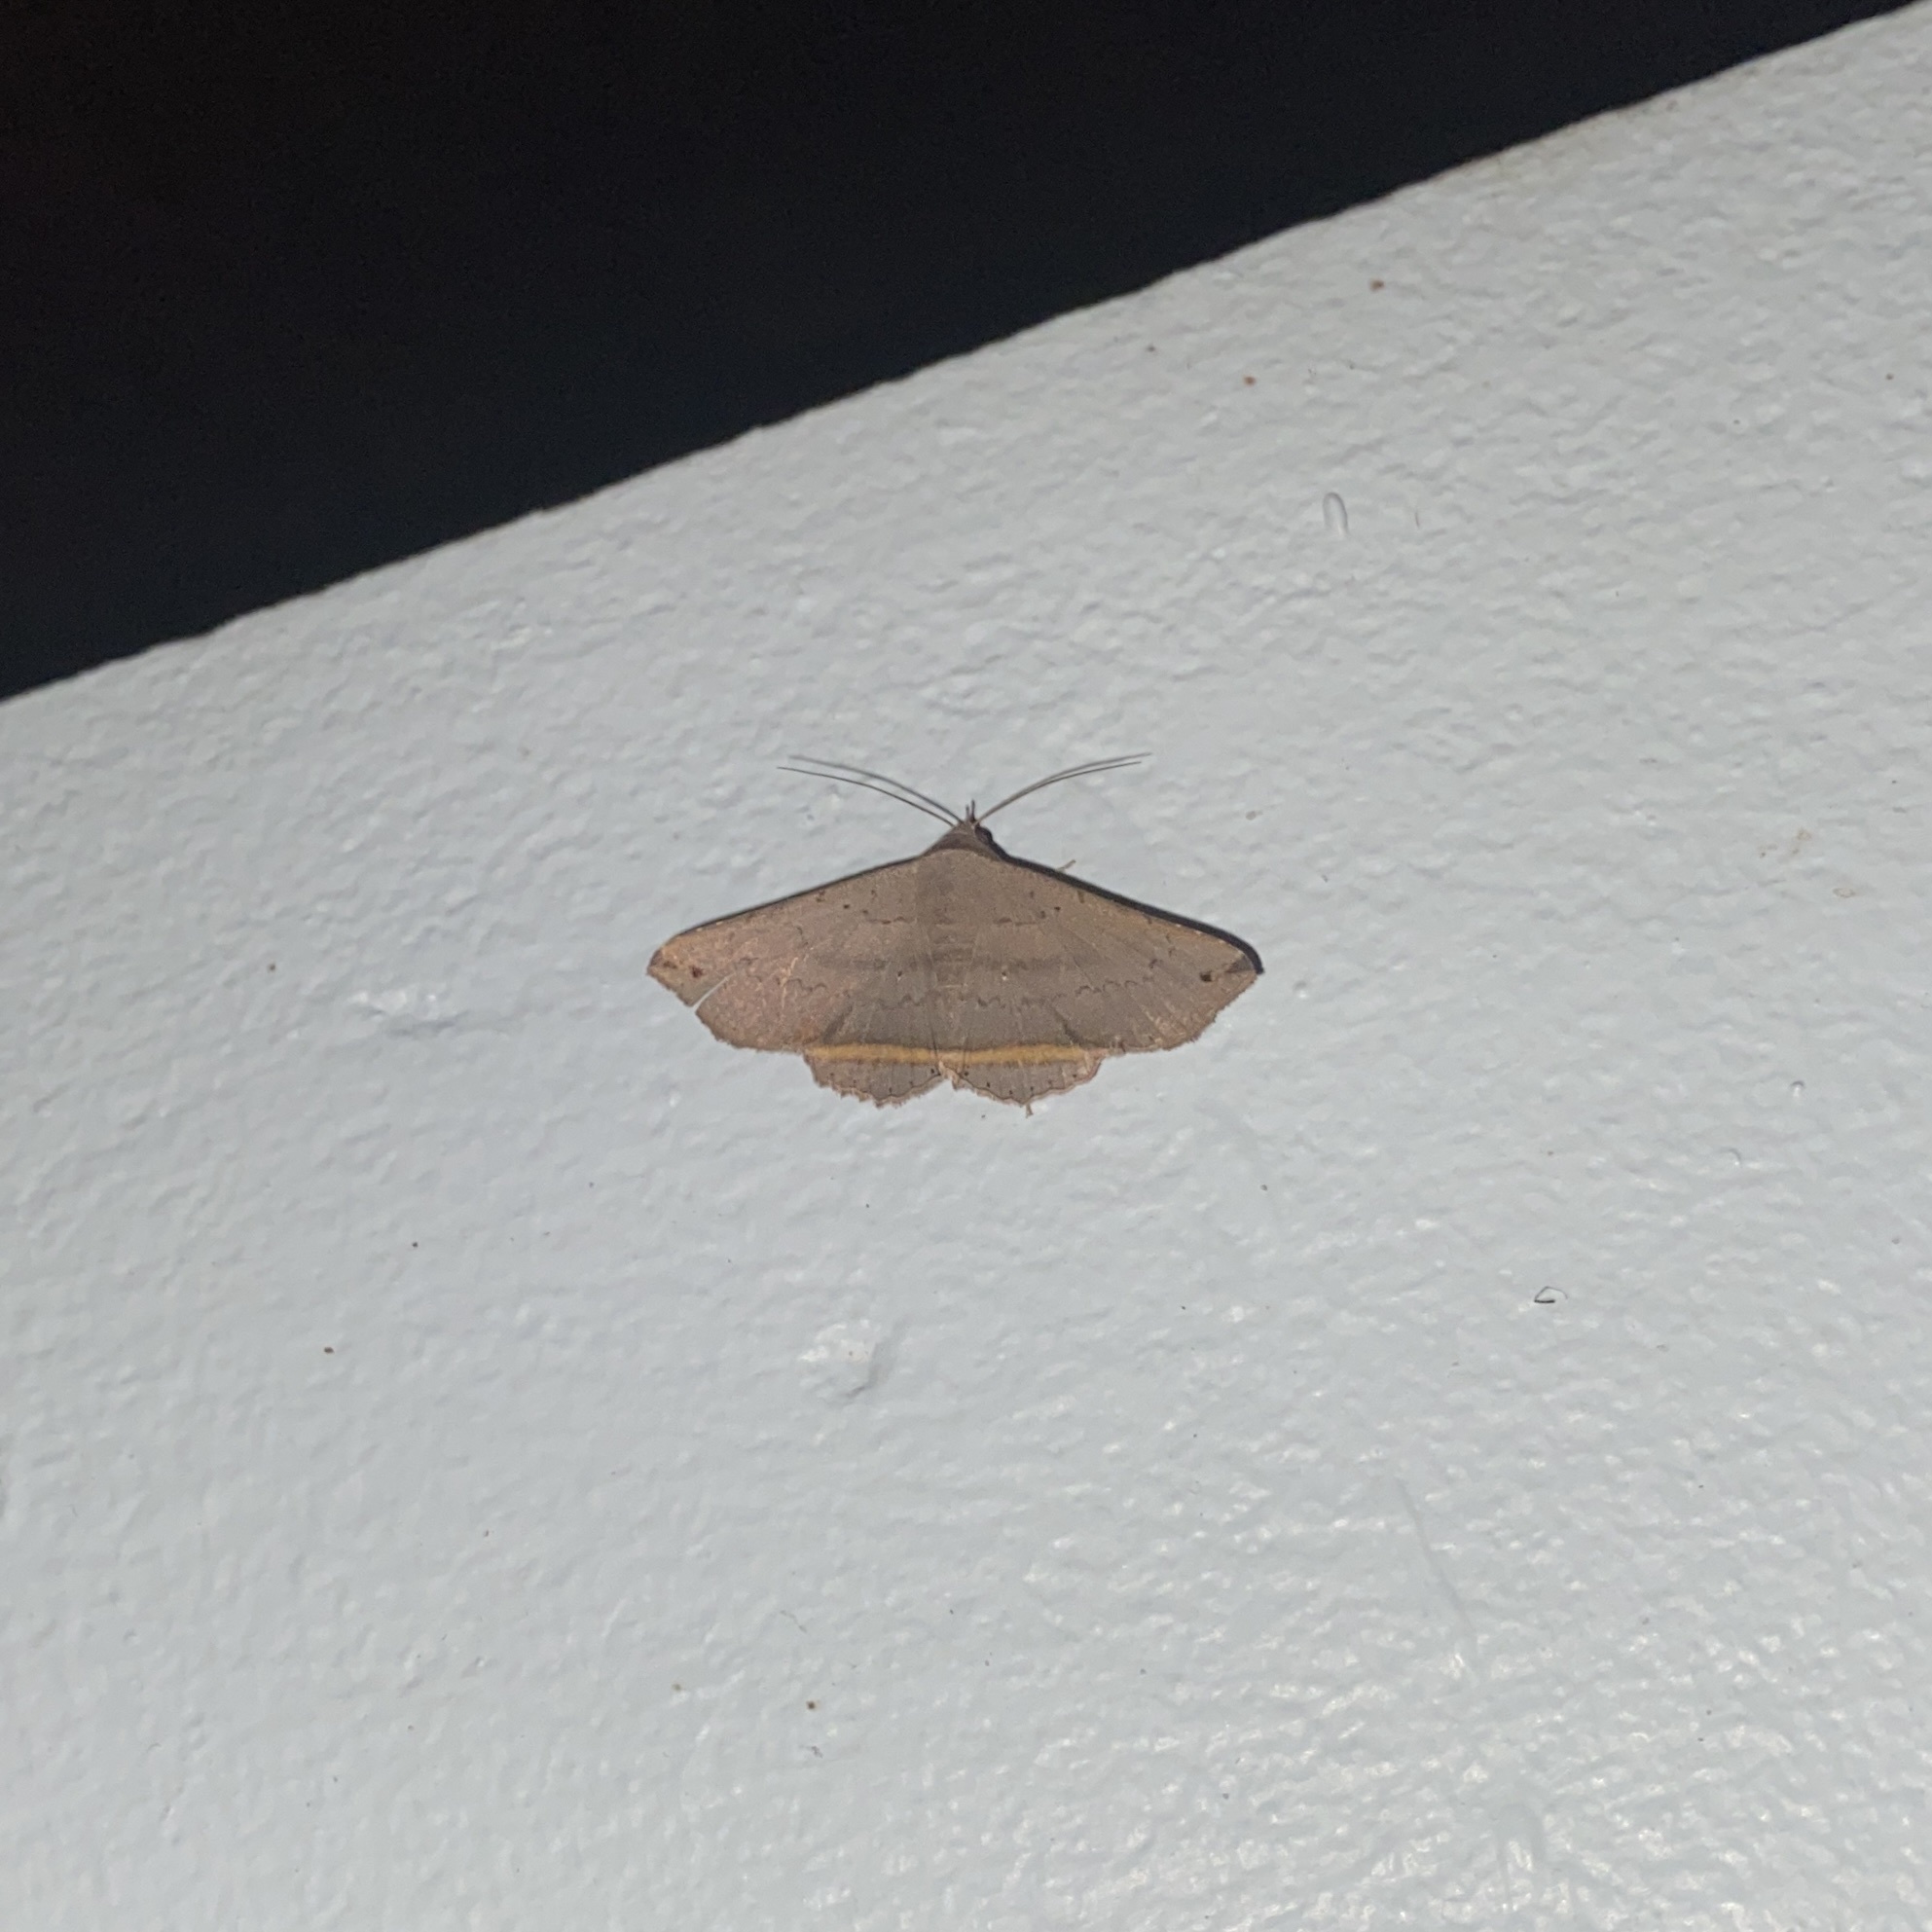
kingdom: Animalia
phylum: Arthropoda
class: Insecta
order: Lepidoptera
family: Erebidae
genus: Lesmone
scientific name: Lesmone formularis
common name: Lesmone moth
